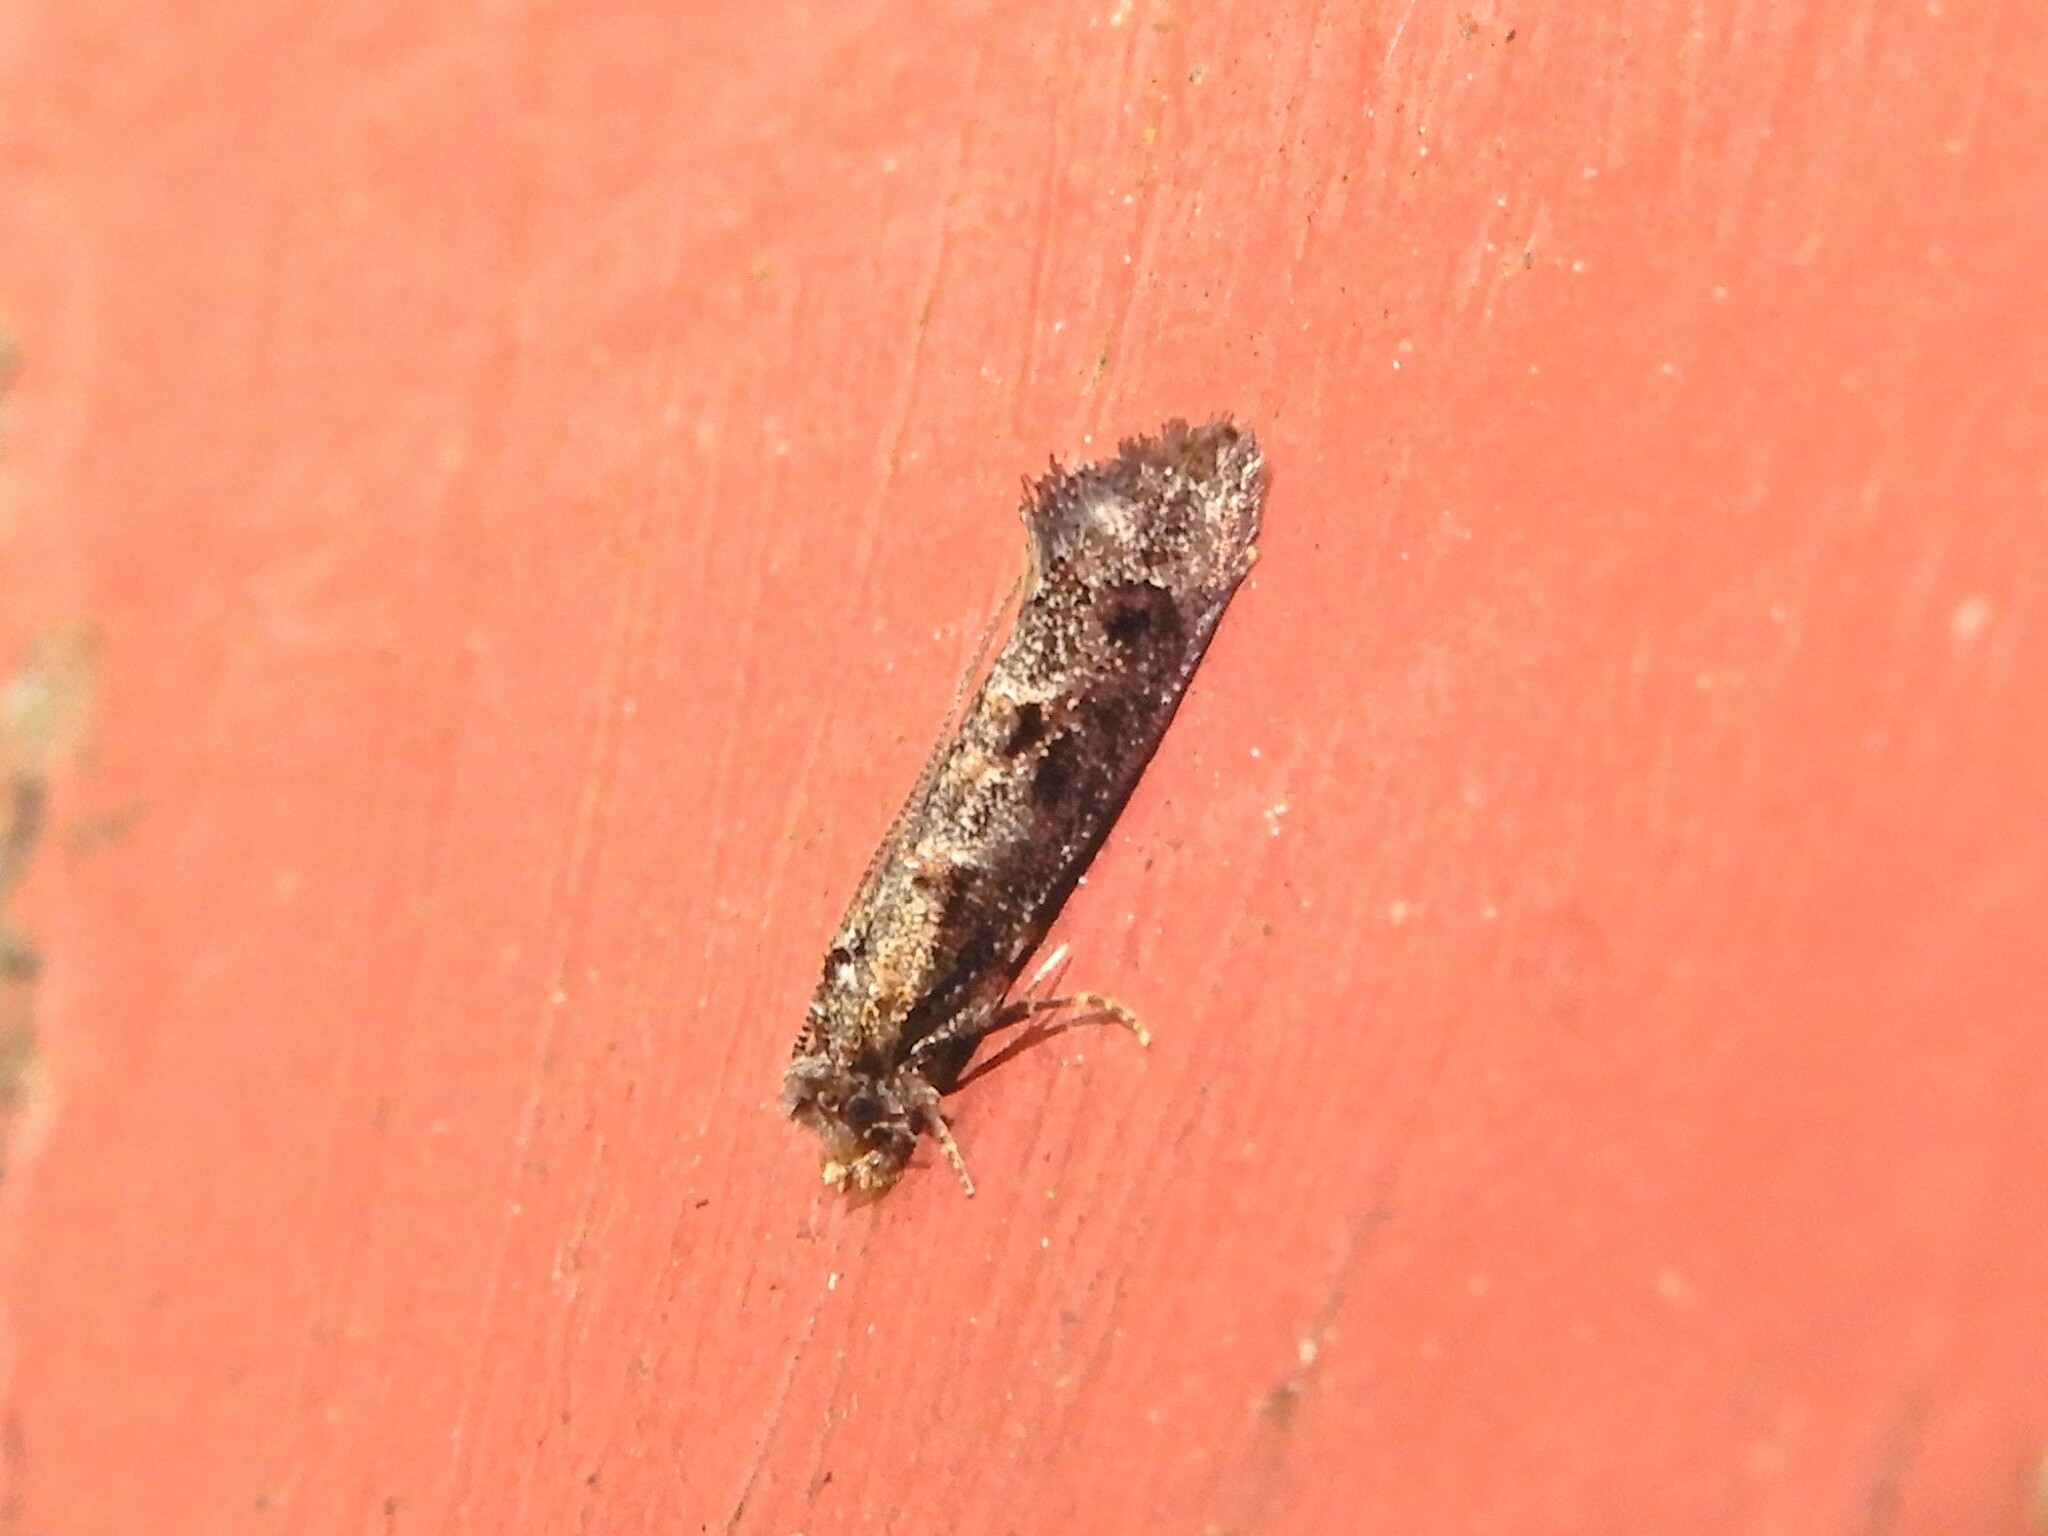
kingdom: Animalia
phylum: Arthropoda
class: Insecta
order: Lepidoptera
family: Tineidae
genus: Trithamnora
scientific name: Trithamnora certella
